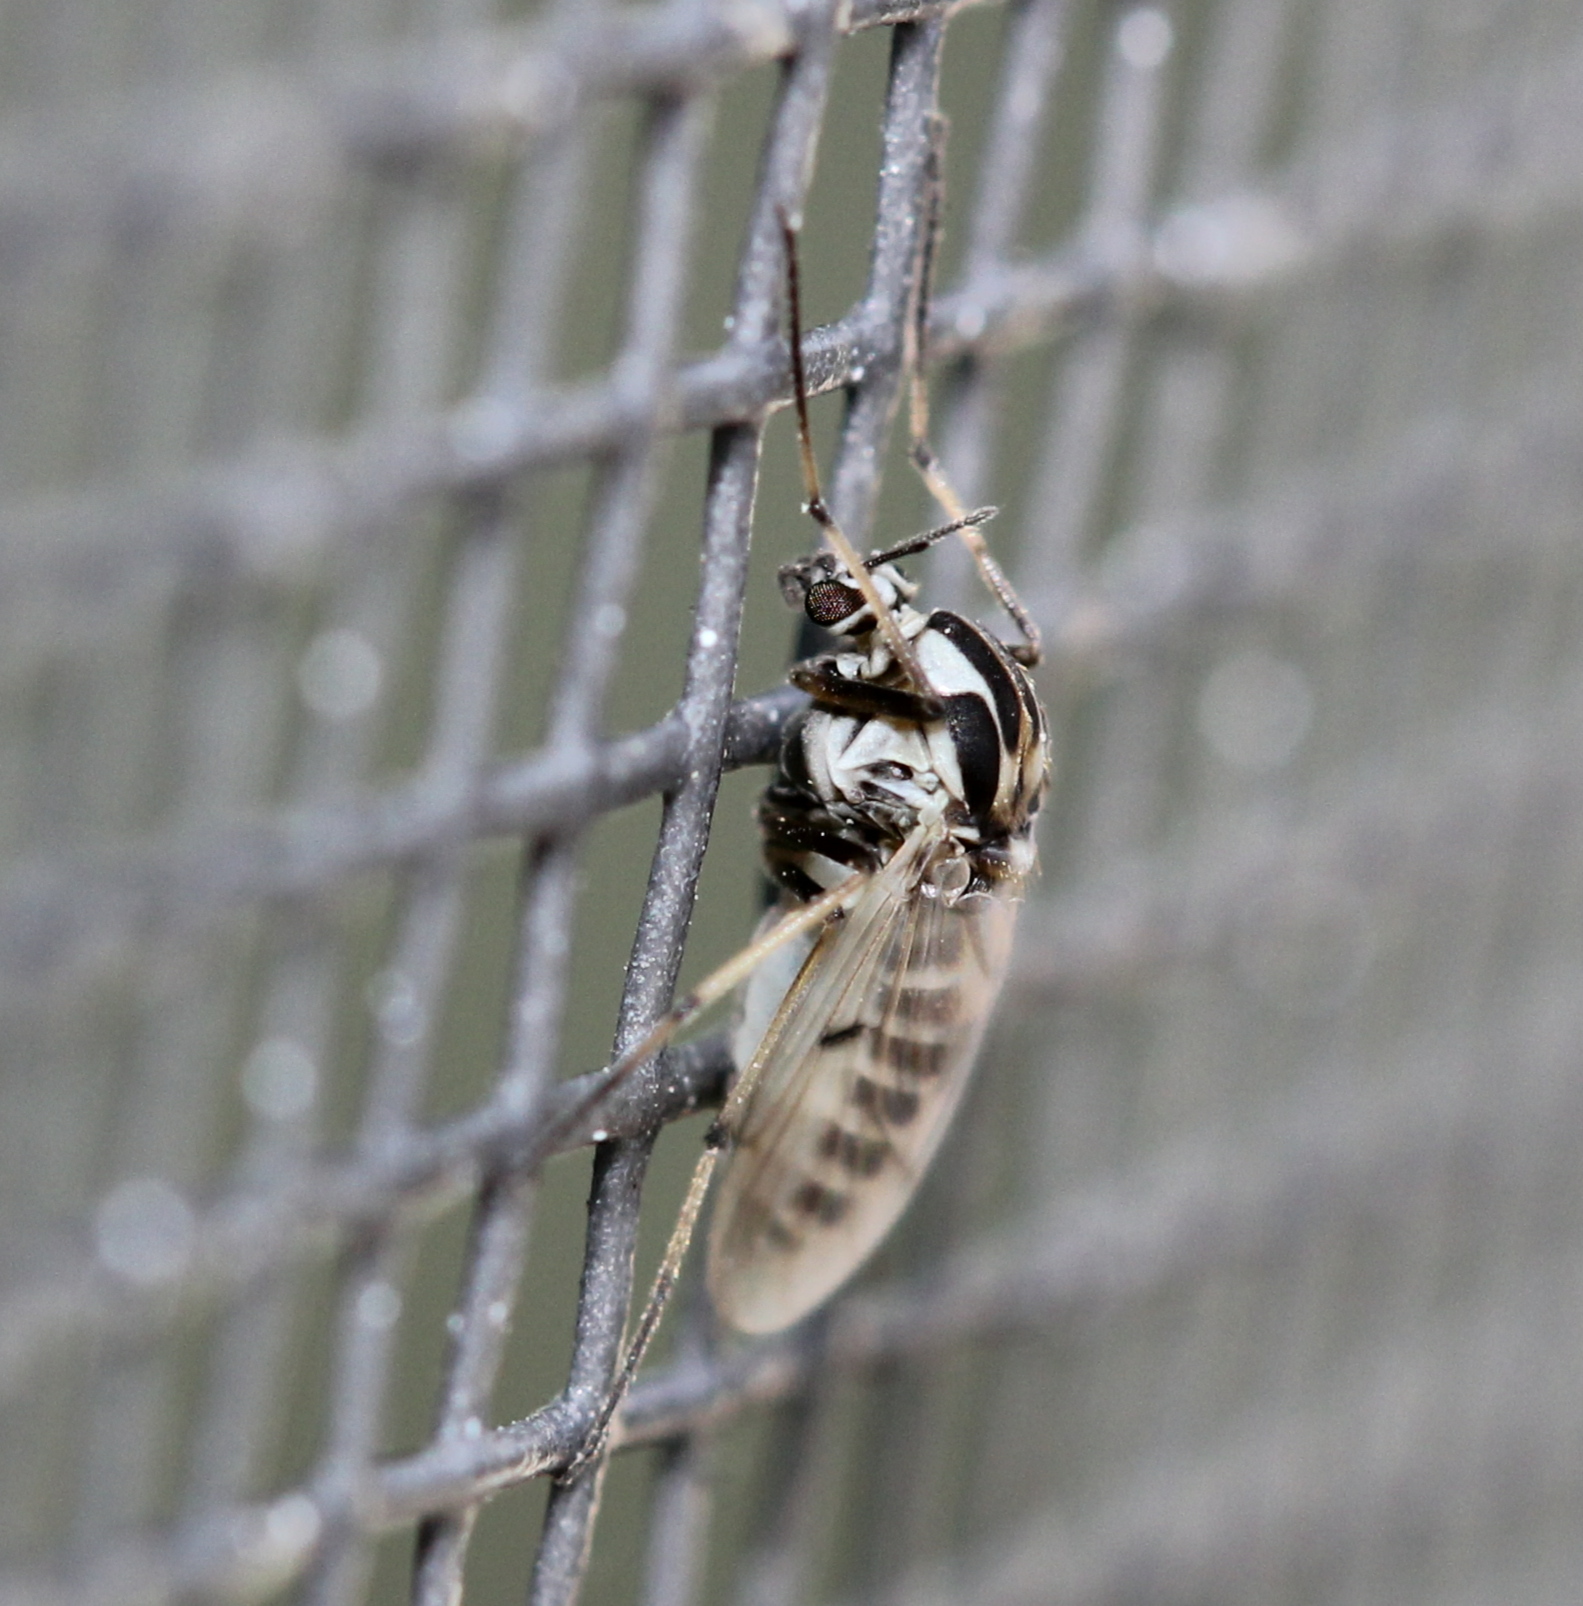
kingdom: Animalia
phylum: Arthropoda
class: Insecta
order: Diptera
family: Chironomidae
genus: Procladius
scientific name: Procladius bellus
